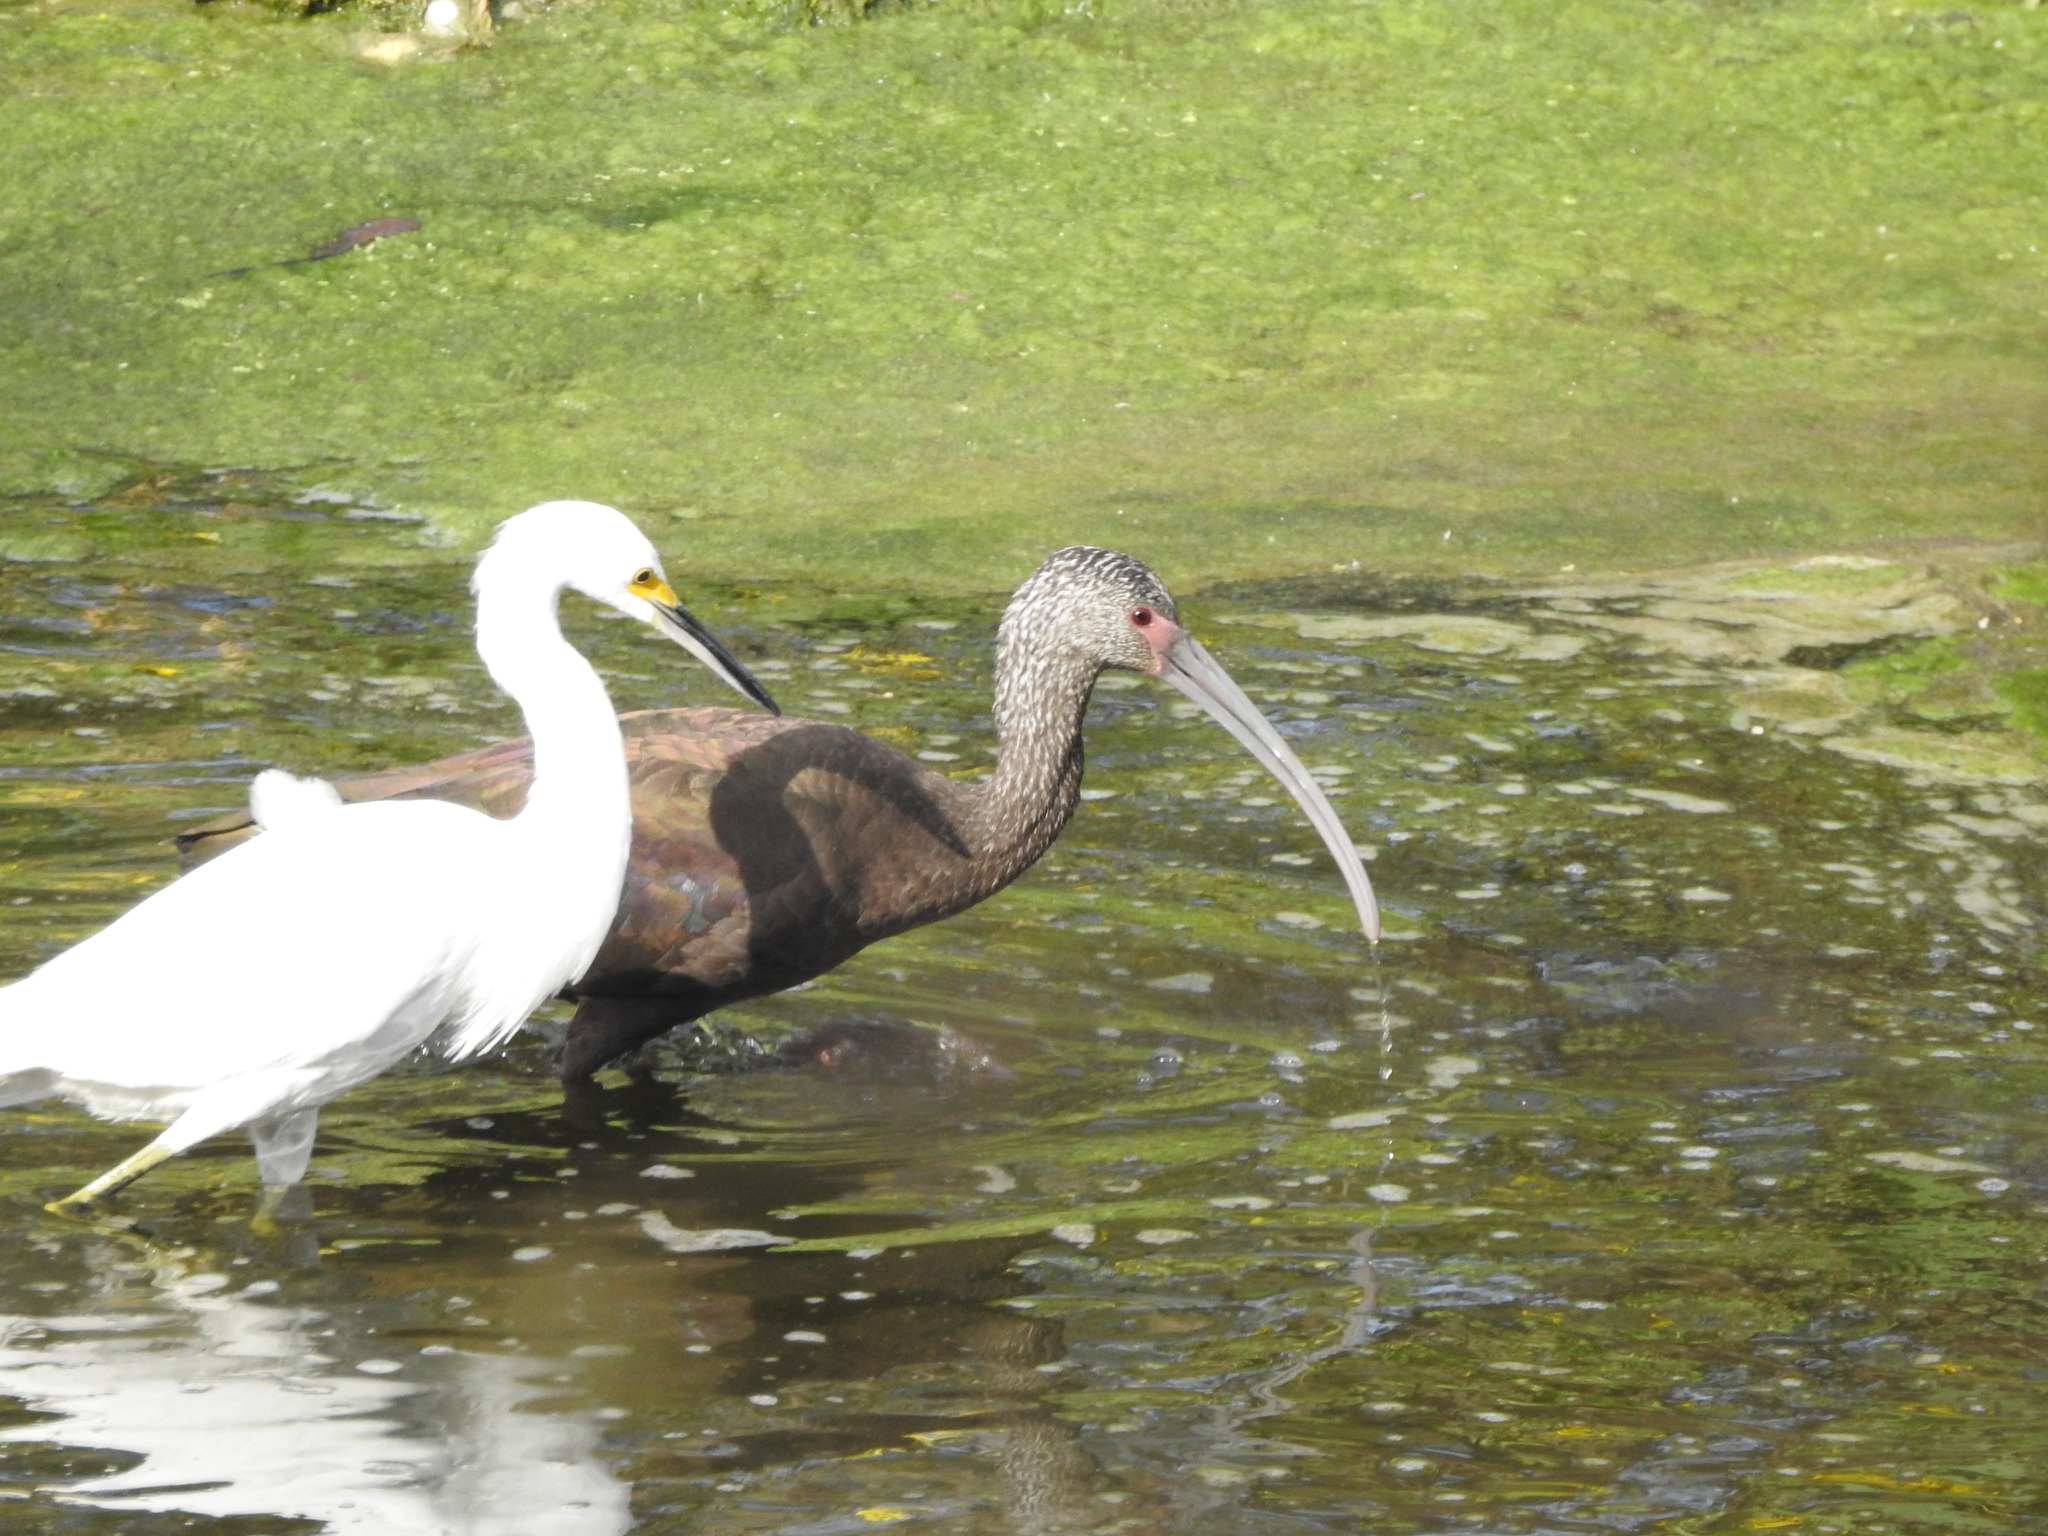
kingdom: Animalia
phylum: Chordata
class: Aves
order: Pelecaniformes
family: Ardeidae
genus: Egretta
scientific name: Egretta thula
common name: Snowy egret
